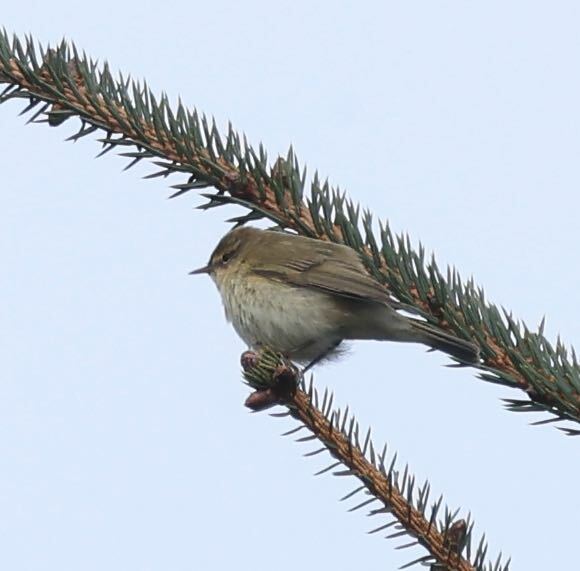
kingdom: Animalia
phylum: Chordata
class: Aves
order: Passeriformes
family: Phylloscopidae
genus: Phylloscopus
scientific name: Phylloscopus collybita
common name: Common chiffchaff
